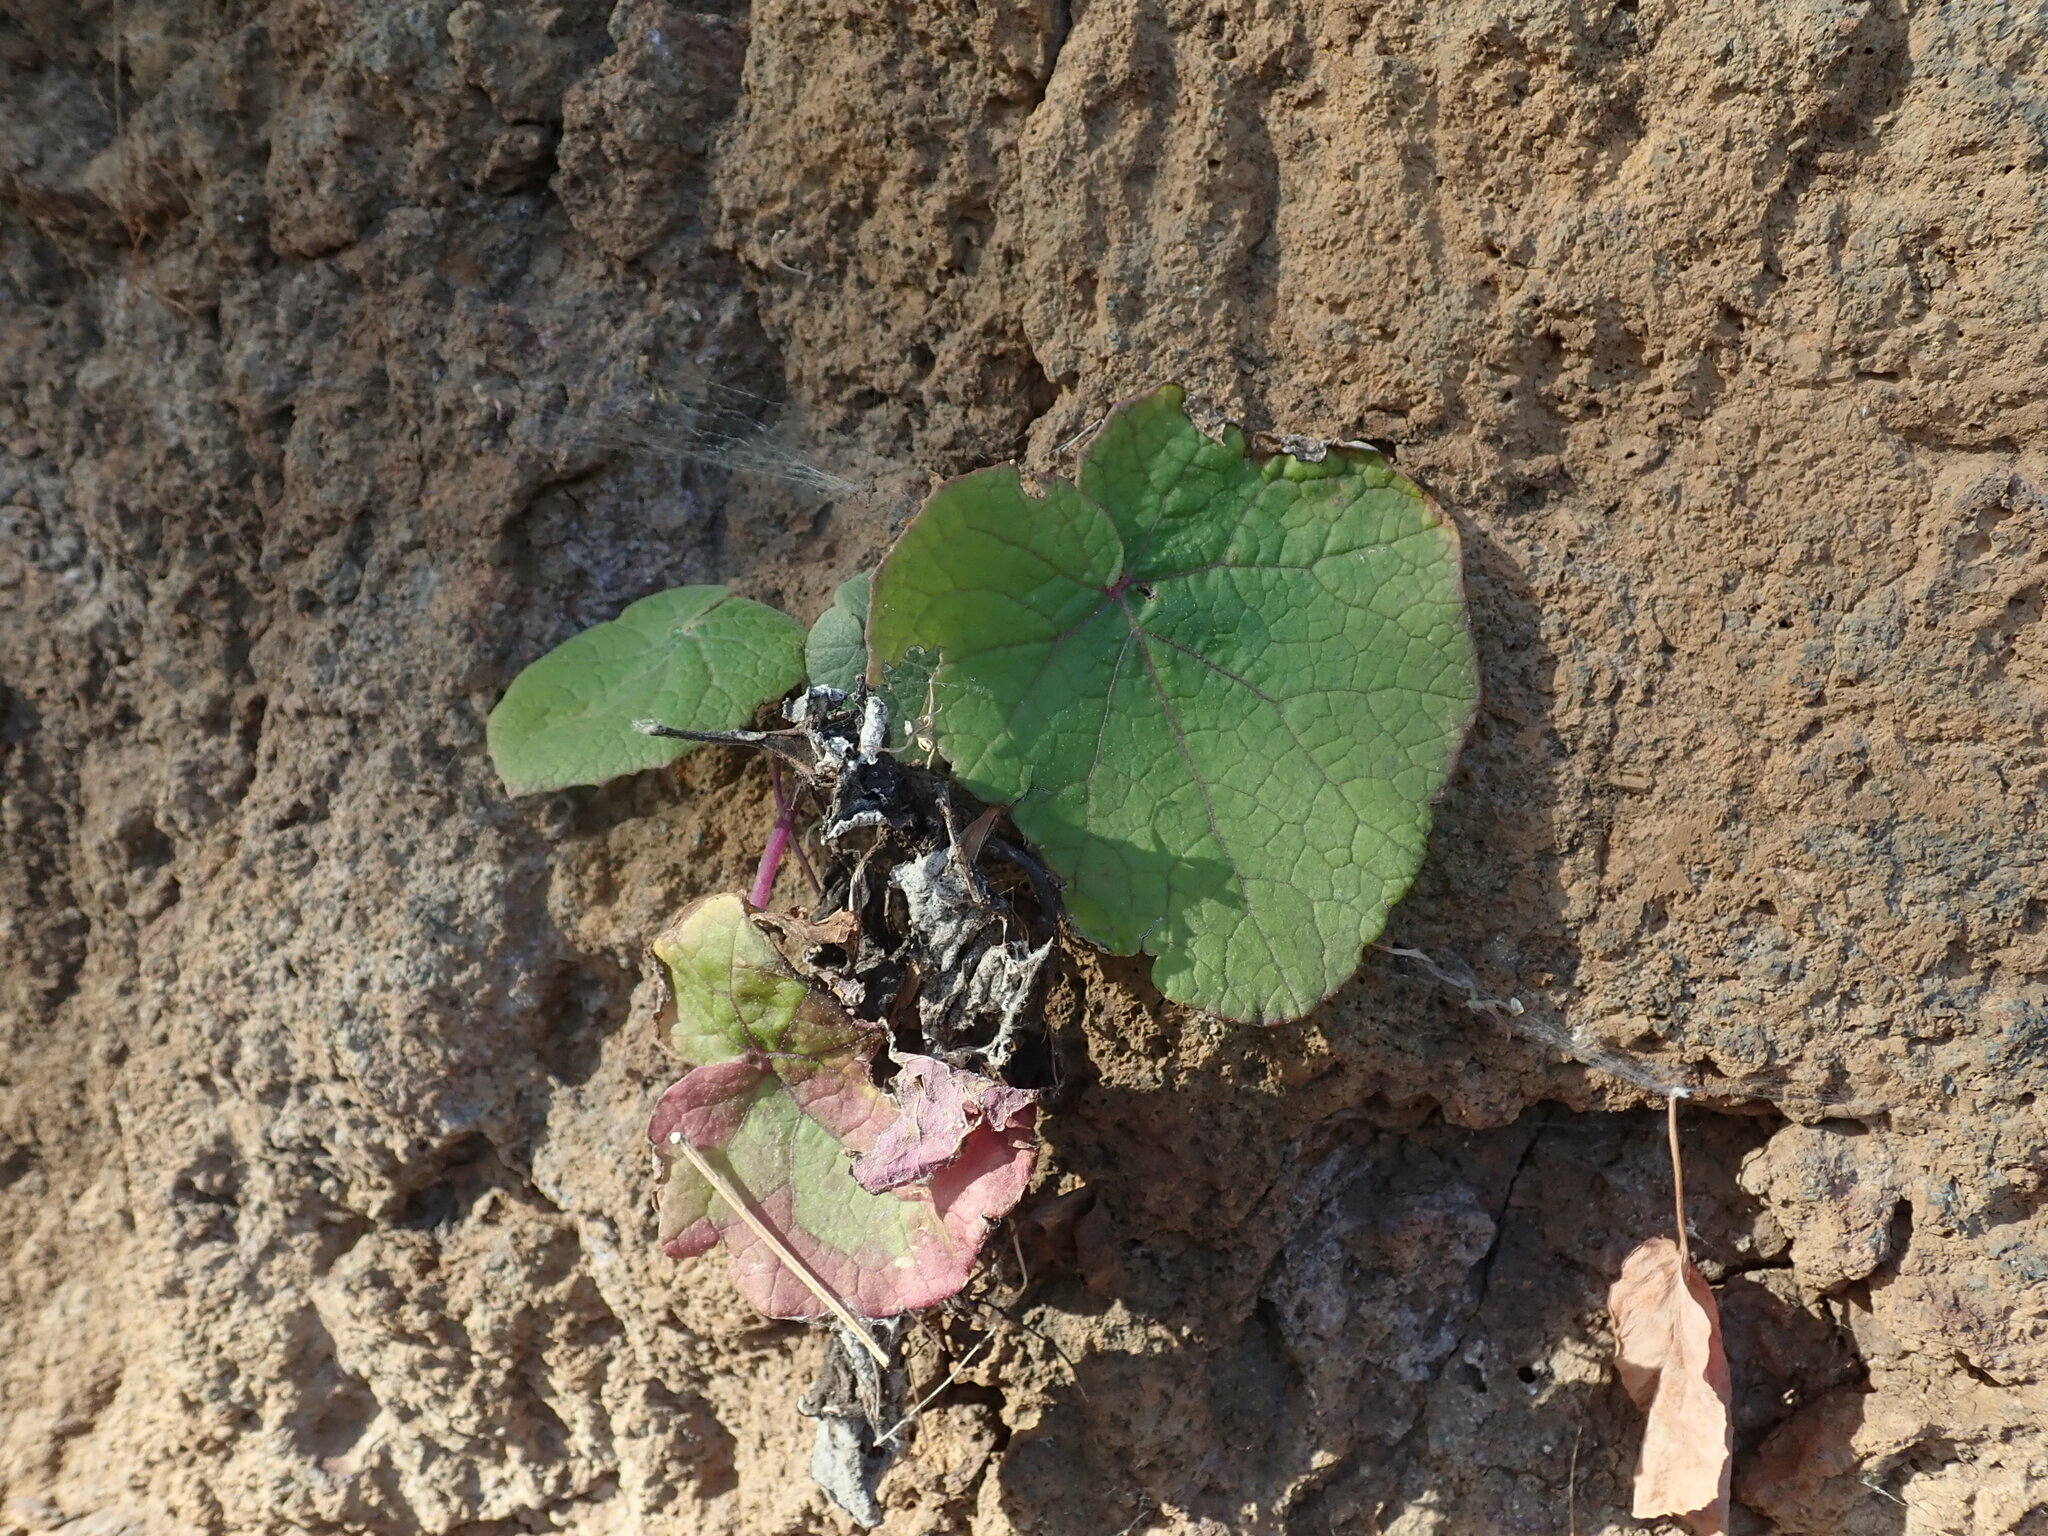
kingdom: Plantae
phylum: Tracheophyta
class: Magnoliopsida
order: Asterales
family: Asteraceae
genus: Pericallis
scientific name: Pericallis webbii
